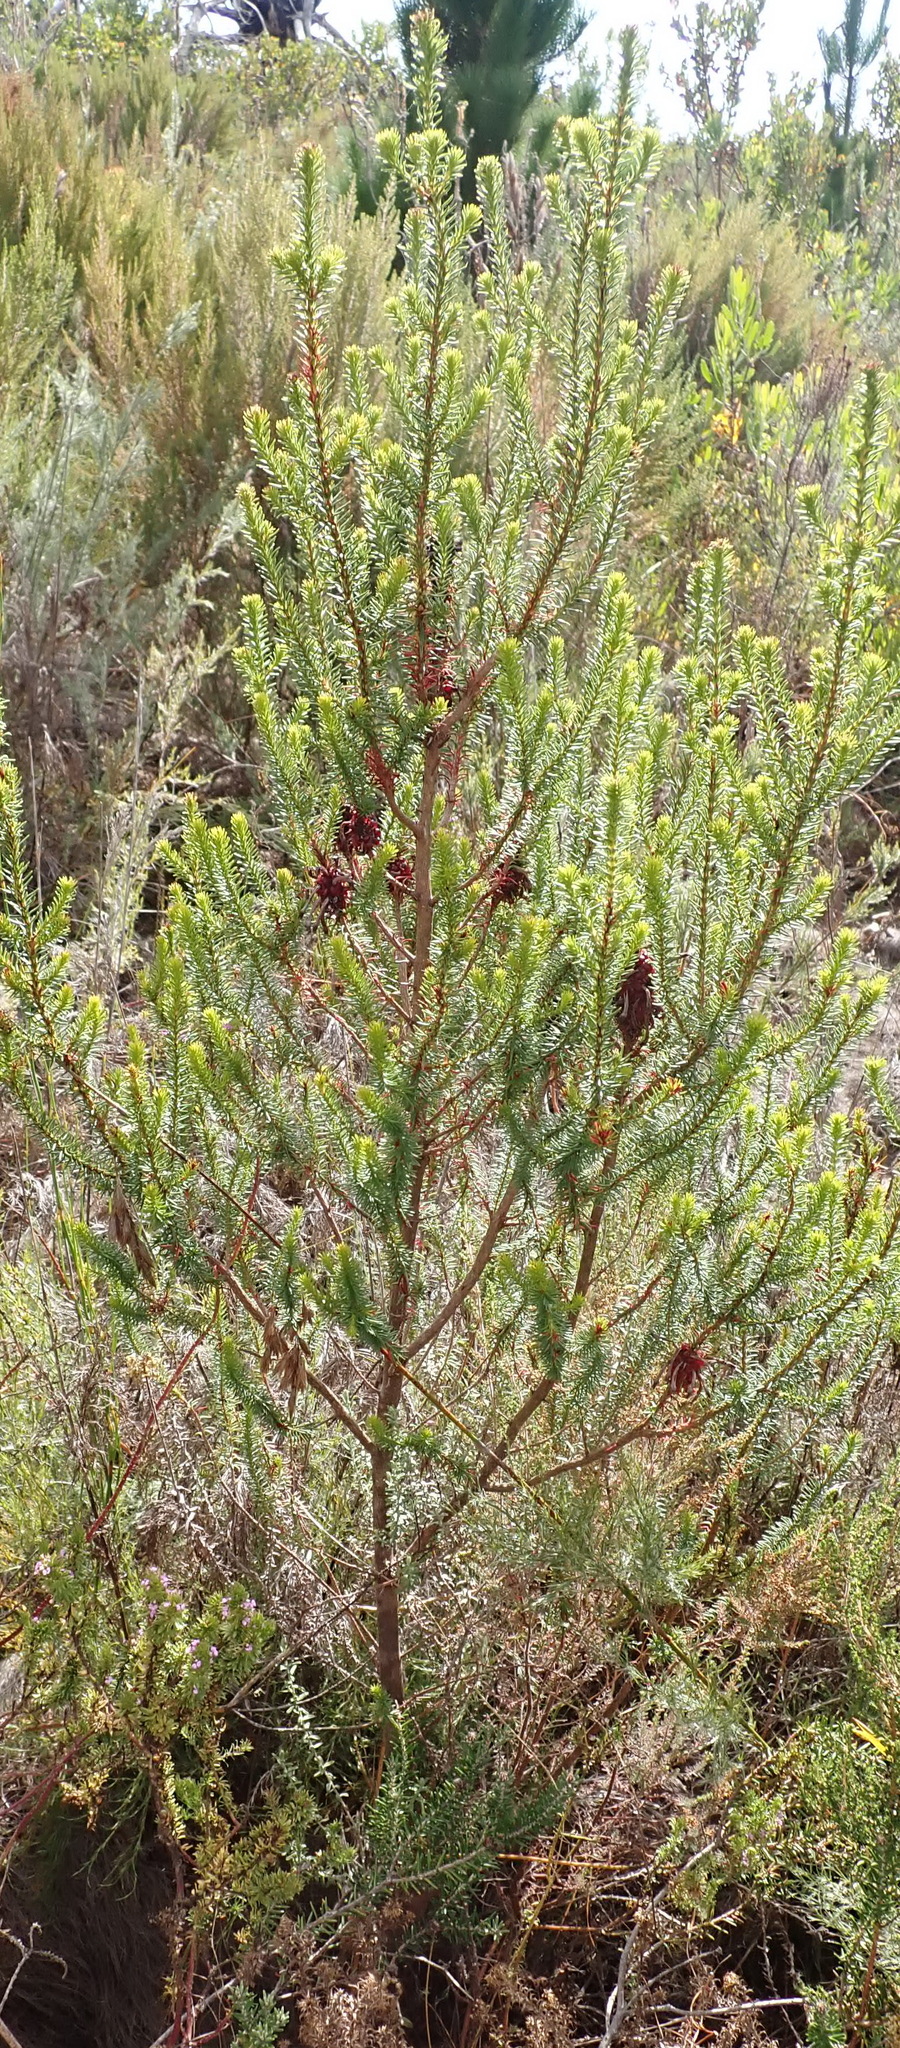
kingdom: Plantae
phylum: Tracheophyta
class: Magnoliopsida
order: Ericales
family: Ericaceae
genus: Erica
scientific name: Erica sessiliflora
